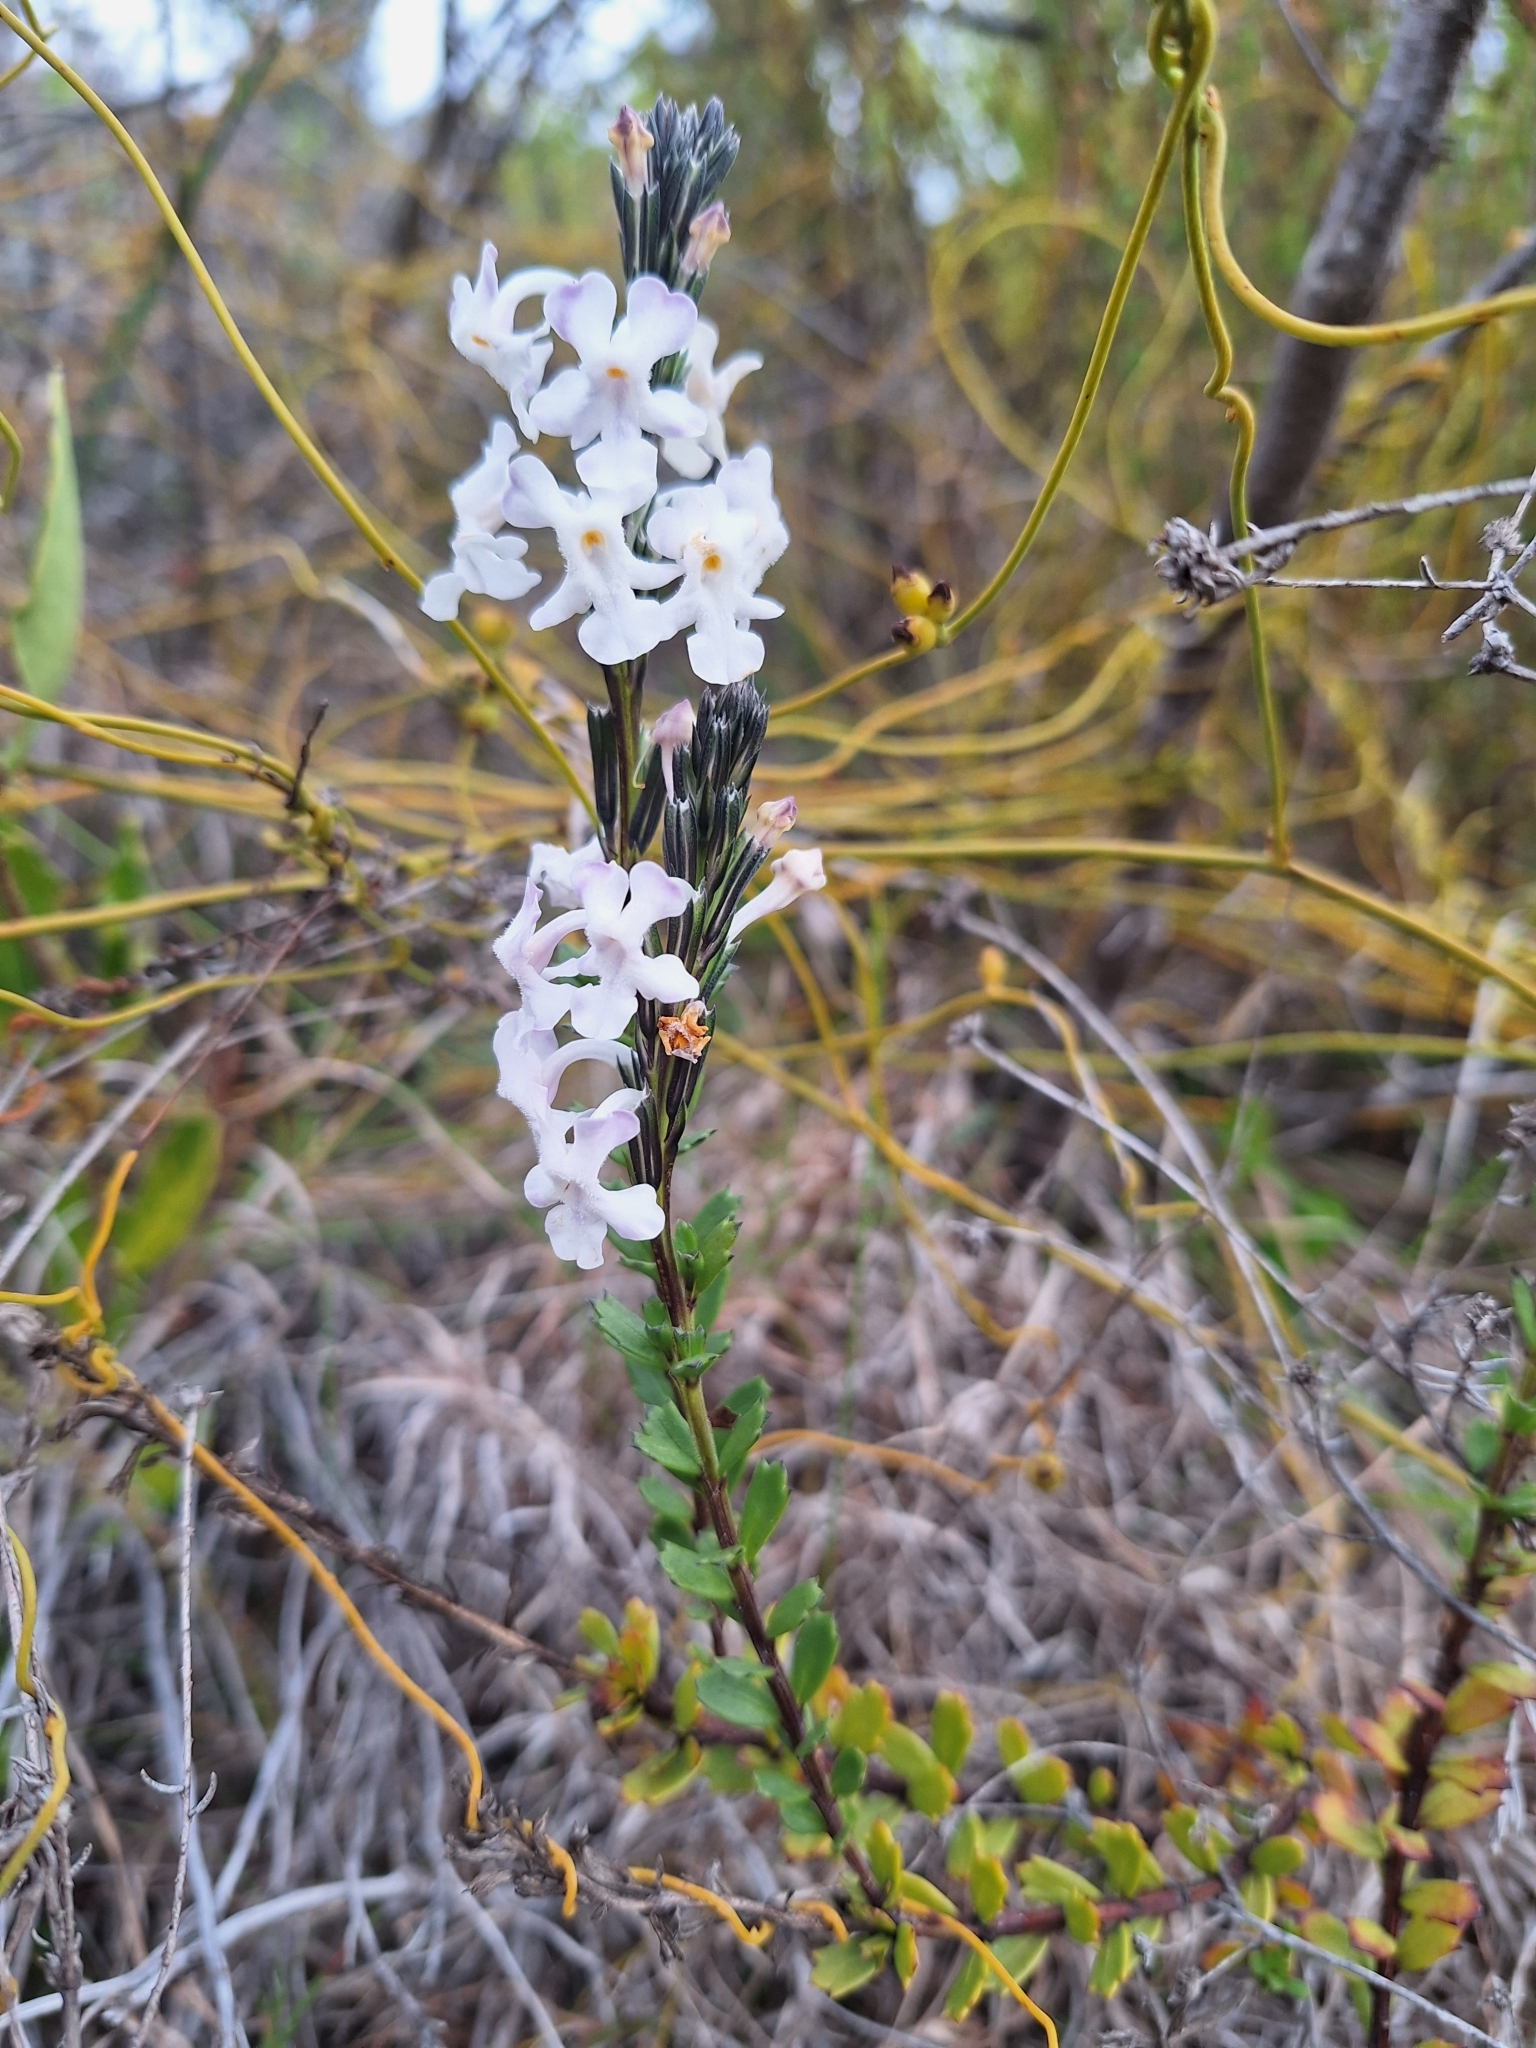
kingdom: Plantae
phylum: Tracheophyta
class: Magnoliopsida
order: Lamiales
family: Verbenaceae
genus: Chascanum
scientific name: Chascanum cernuum
